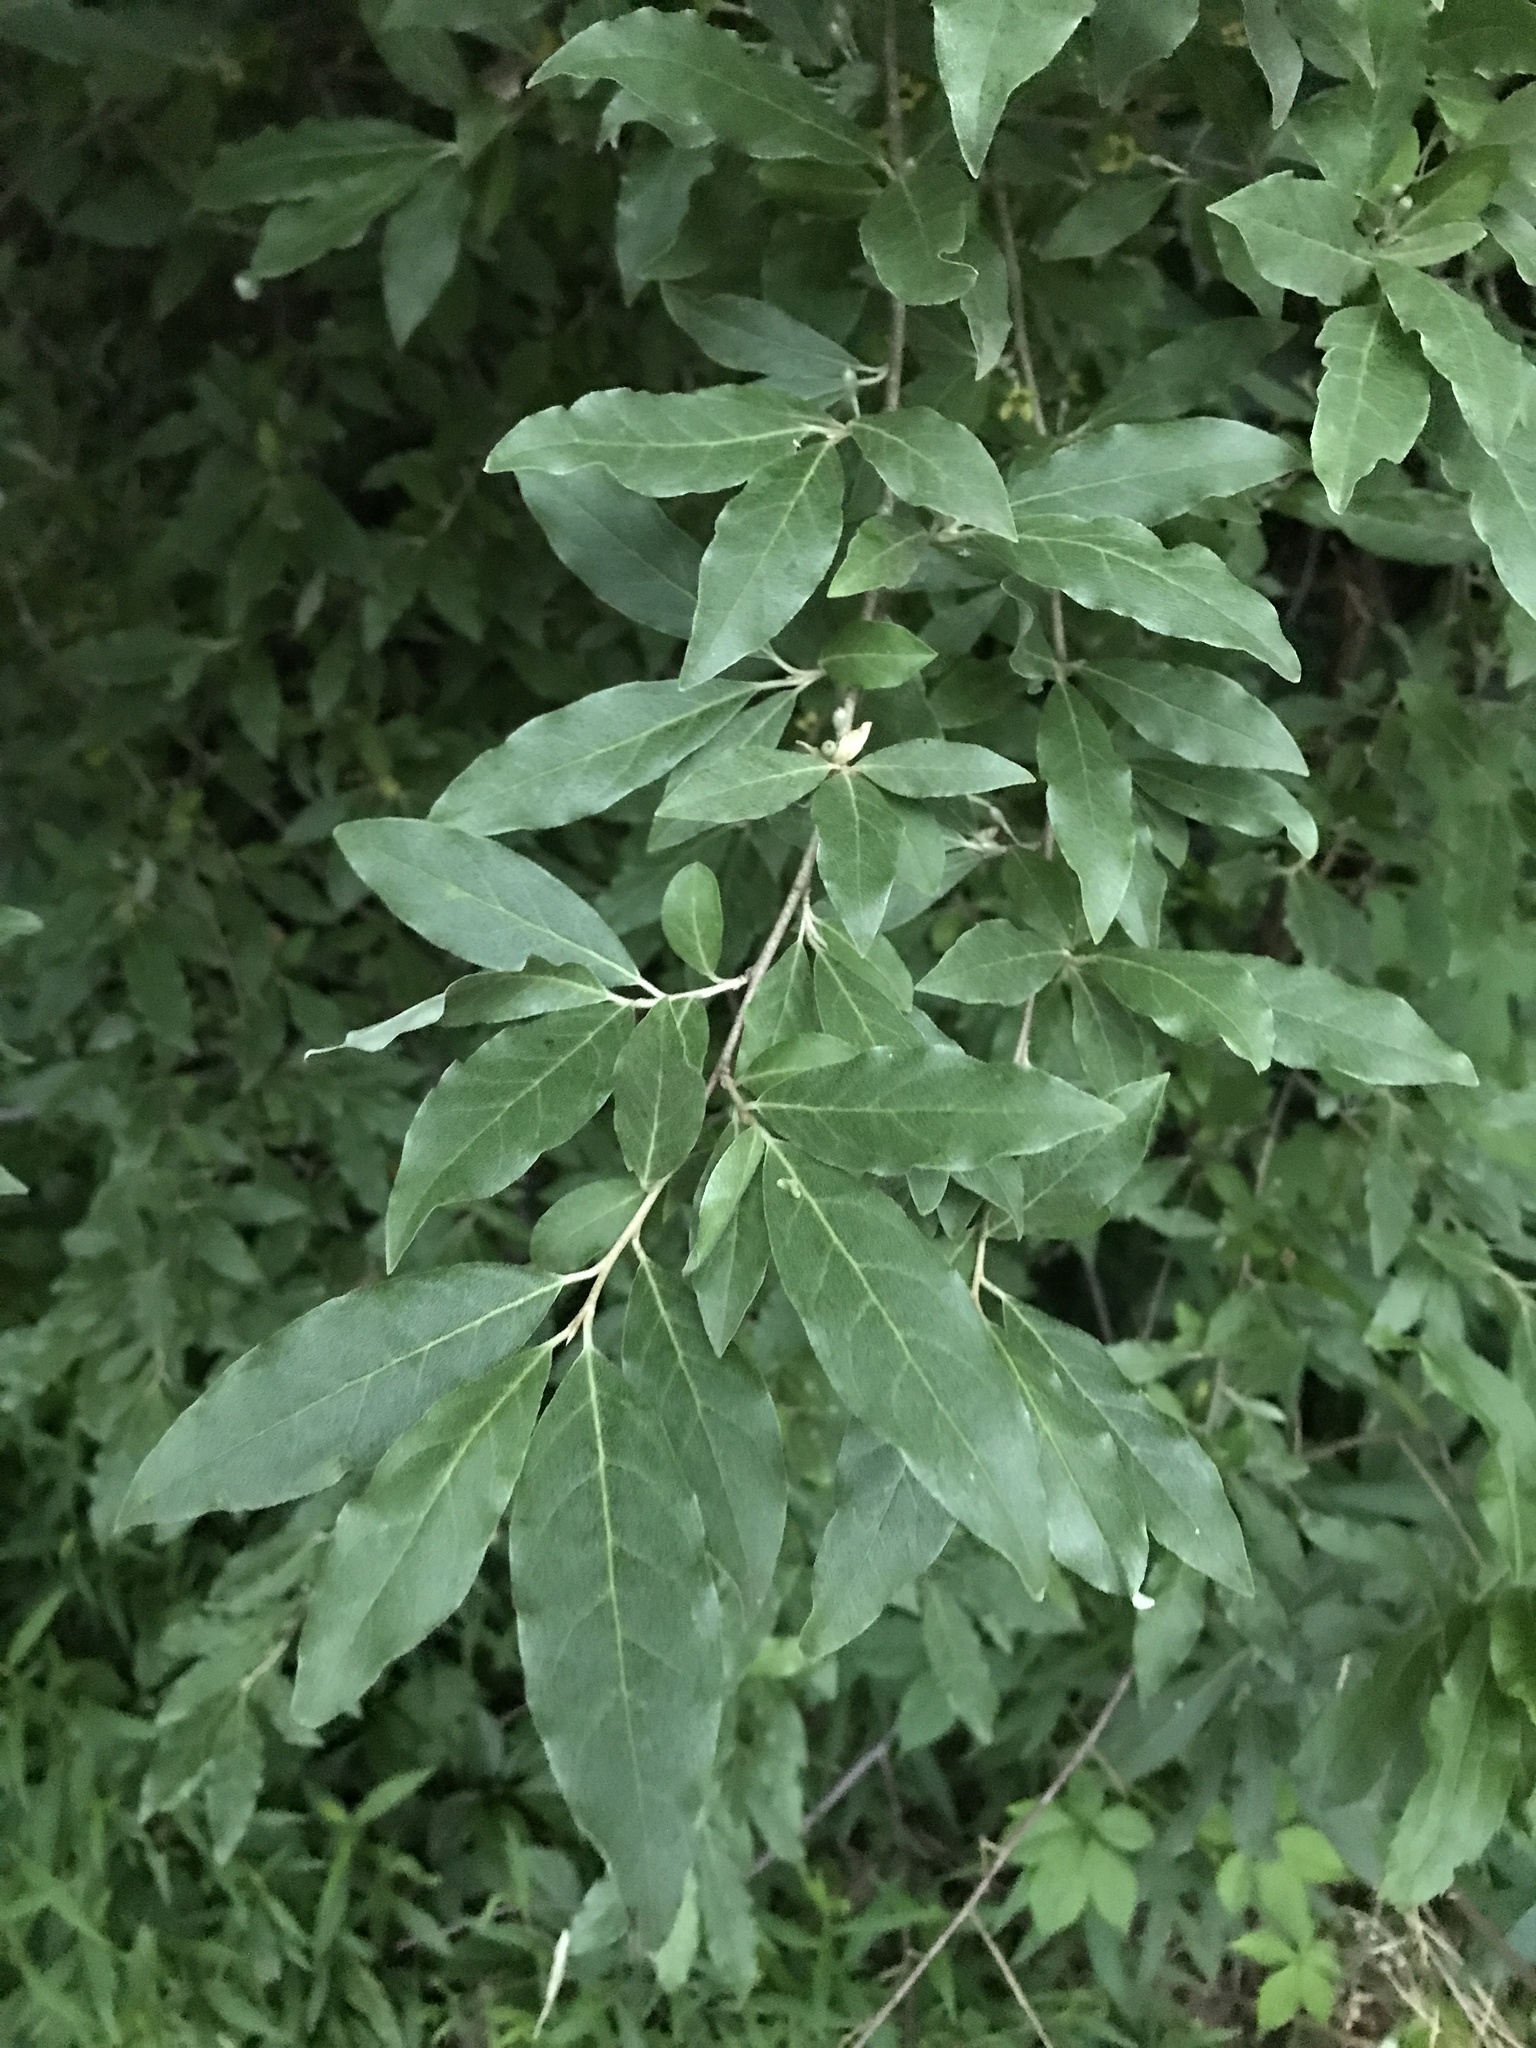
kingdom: Plantae
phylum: Tracheophyta
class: Magnoliopsida
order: Rosales
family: Elaeagnaceae
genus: Elaeagnus
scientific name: Elaeagnus umbellata
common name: Autumn olive
